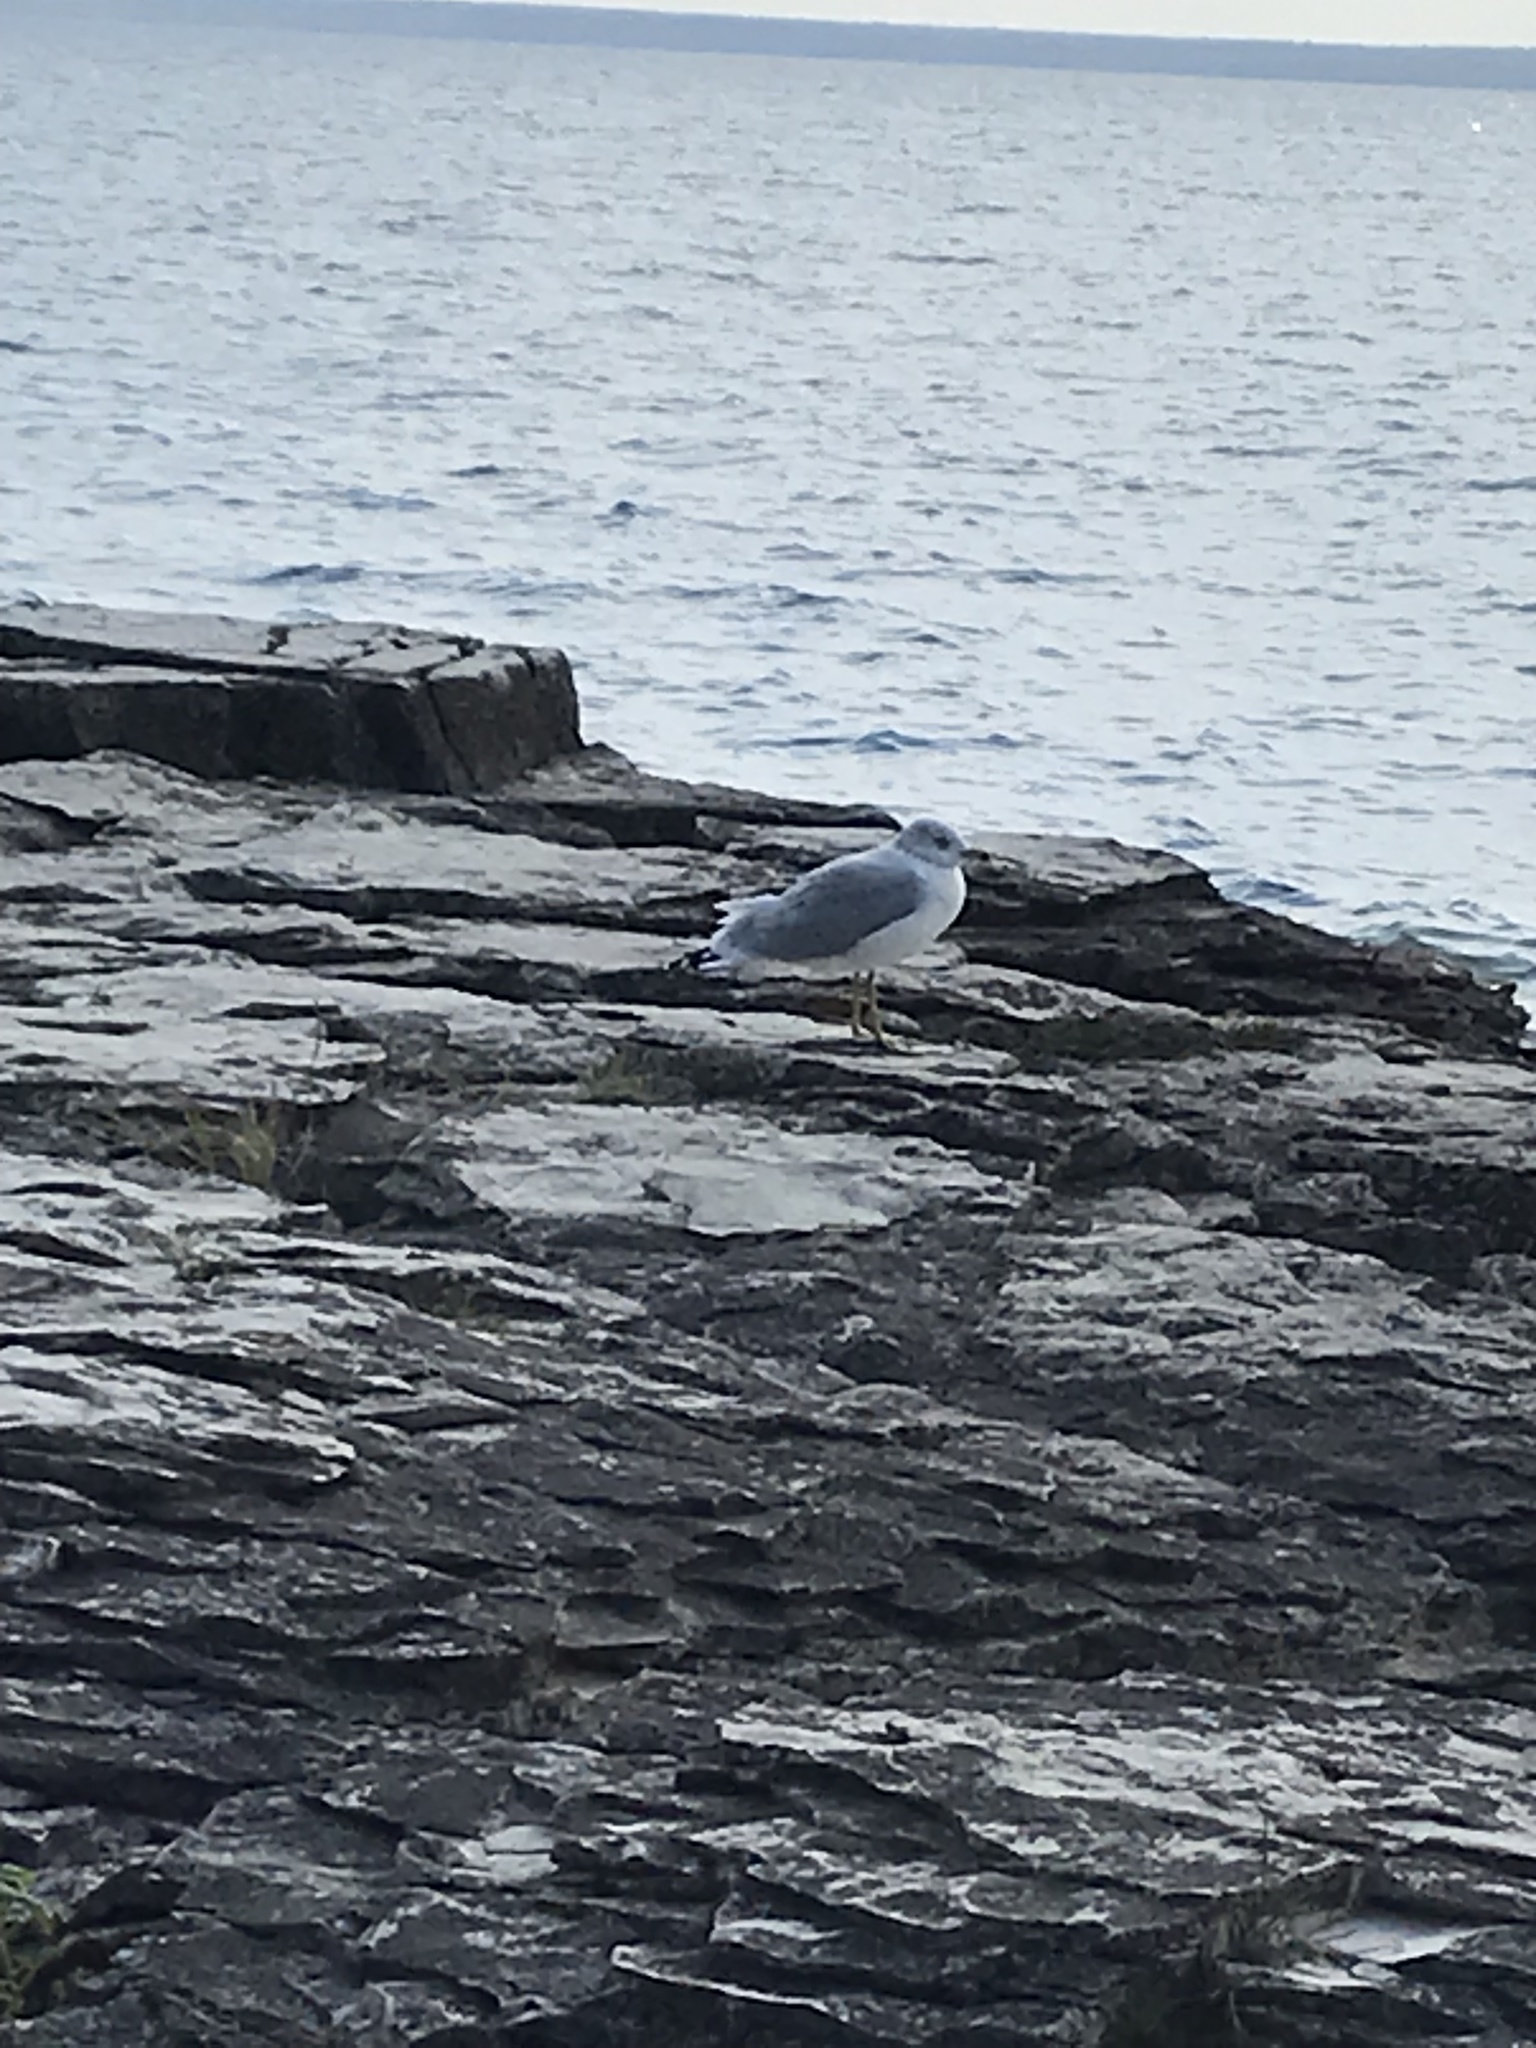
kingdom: Animalia
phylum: Chordata
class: Aves
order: Charadriiformes
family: Laridae
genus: Larus
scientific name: Larus delawarensis
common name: Ring-billed gull
